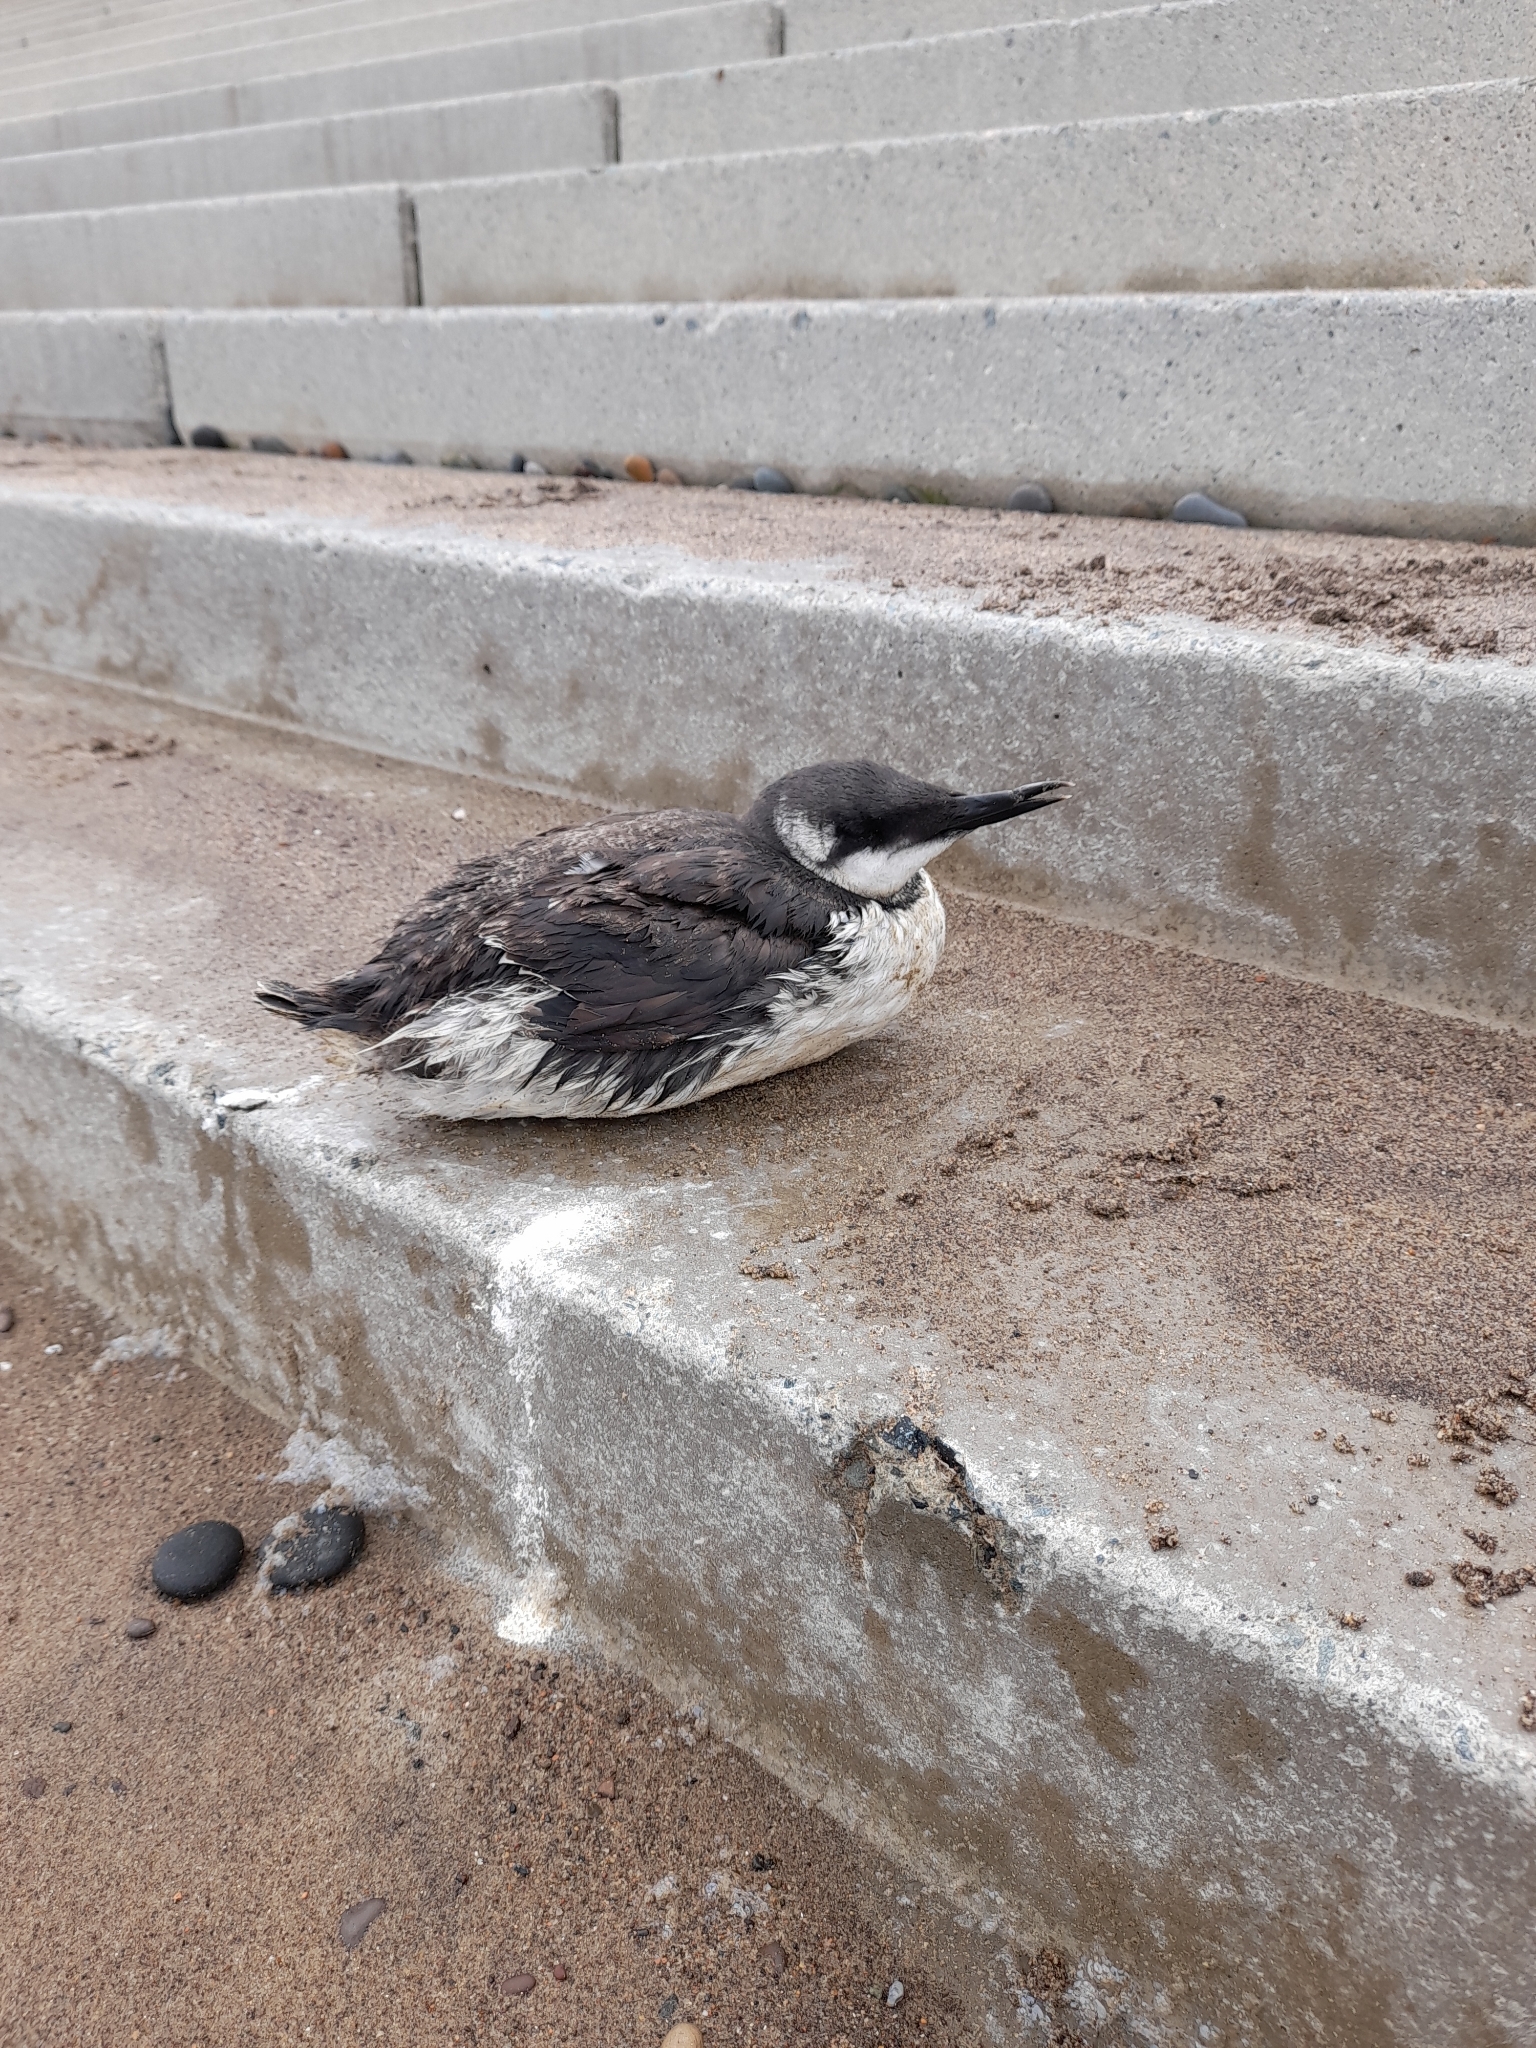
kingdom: Animalia
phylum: Chordata
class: Aves
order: Charadriiformes
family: Alcidae
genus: Uria
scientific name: Uria aalge
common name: Common murre
